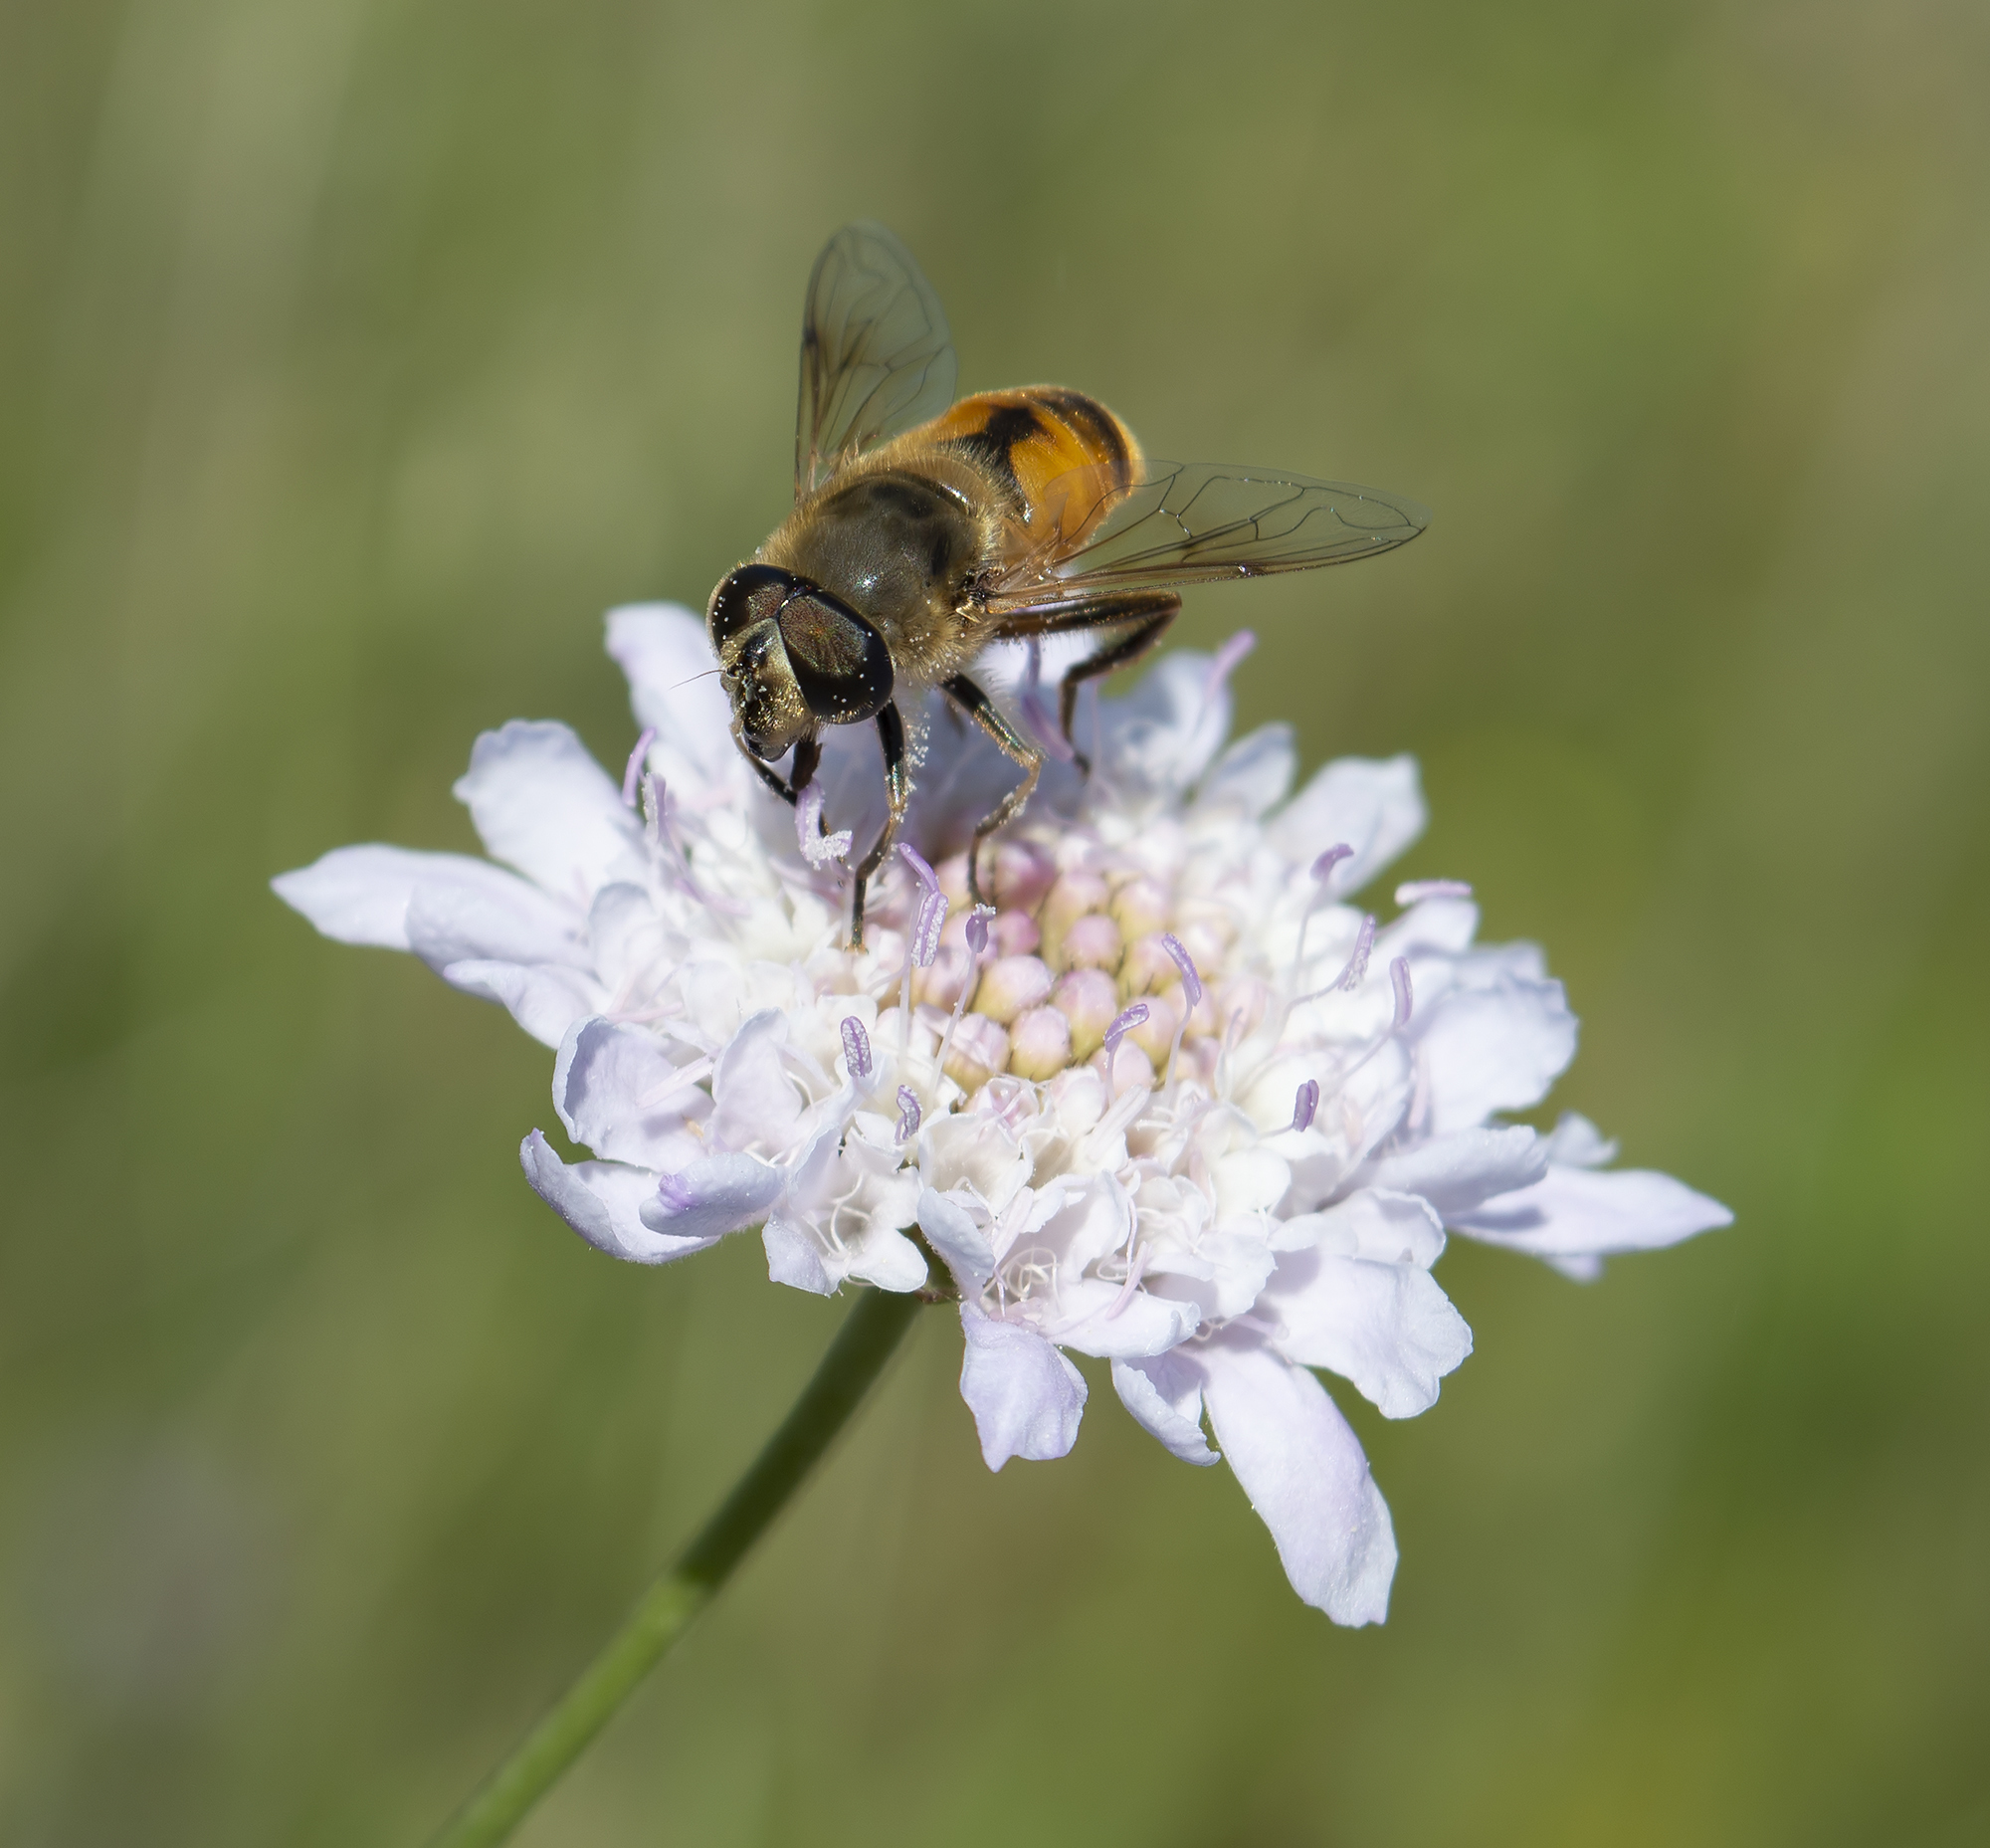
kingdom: Animalia
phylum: Arthropoda
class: Insecta
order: Diptera
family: Syrphidae
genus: Eristalis
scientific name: Eristalis tenax
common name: Drone fly
